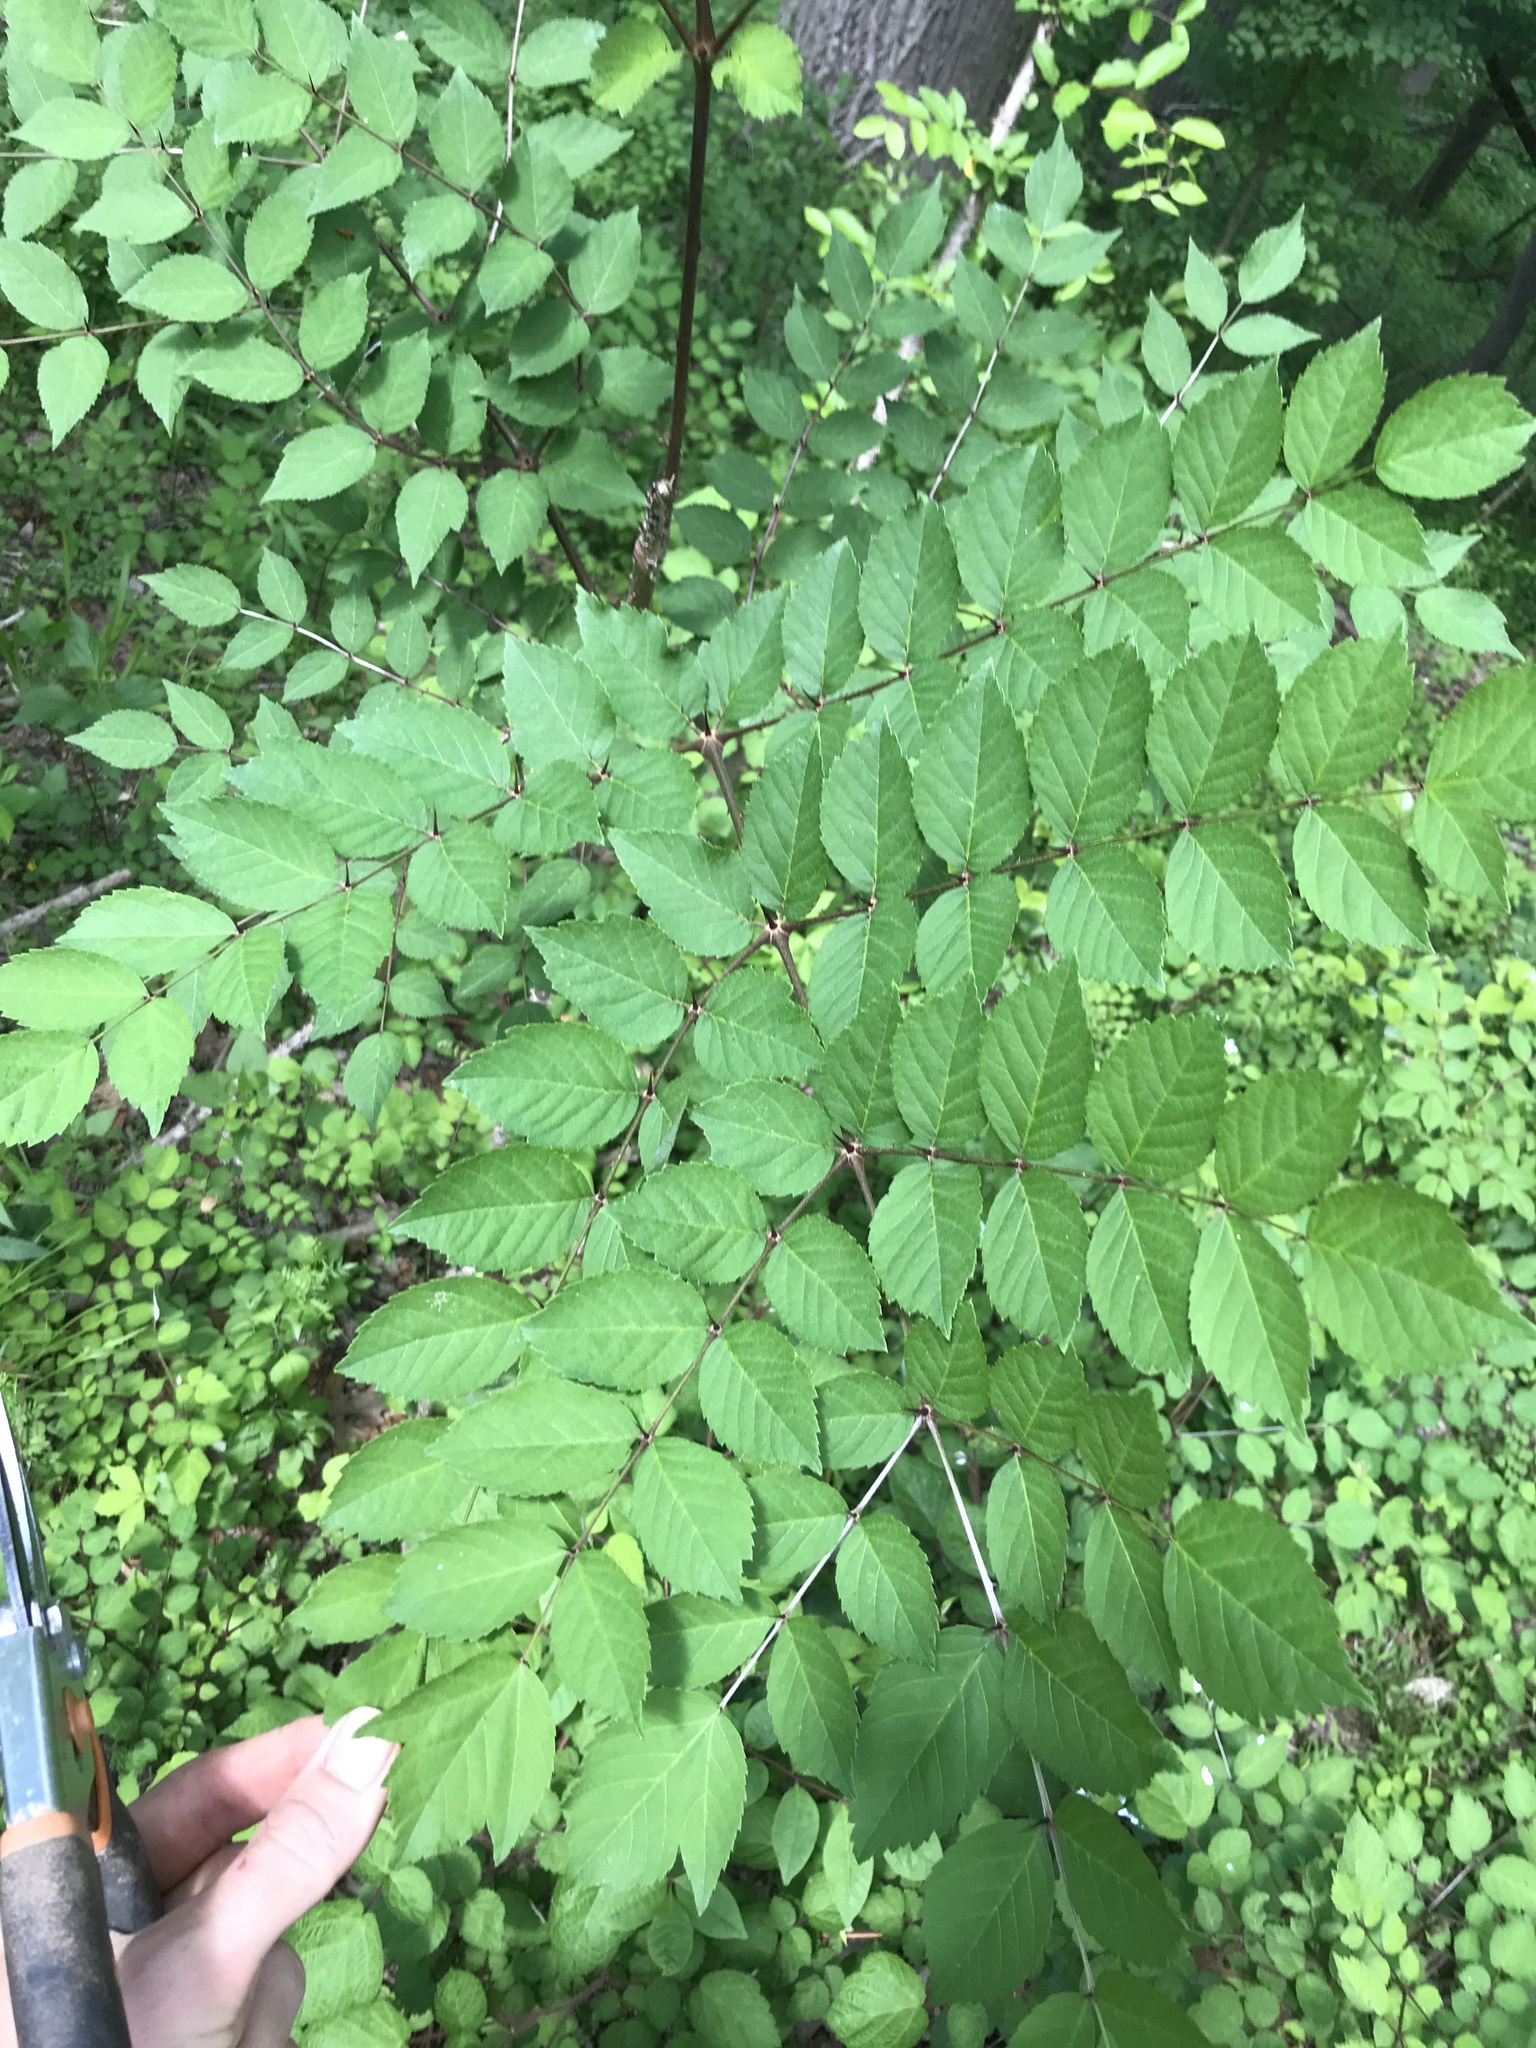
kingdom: Plantae
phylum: Tracheophyta
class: Magnoliopsida
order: Apiales
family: Araliaceae
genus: Aralia
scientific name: Aralia elata
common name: Japanese angelica-tree
